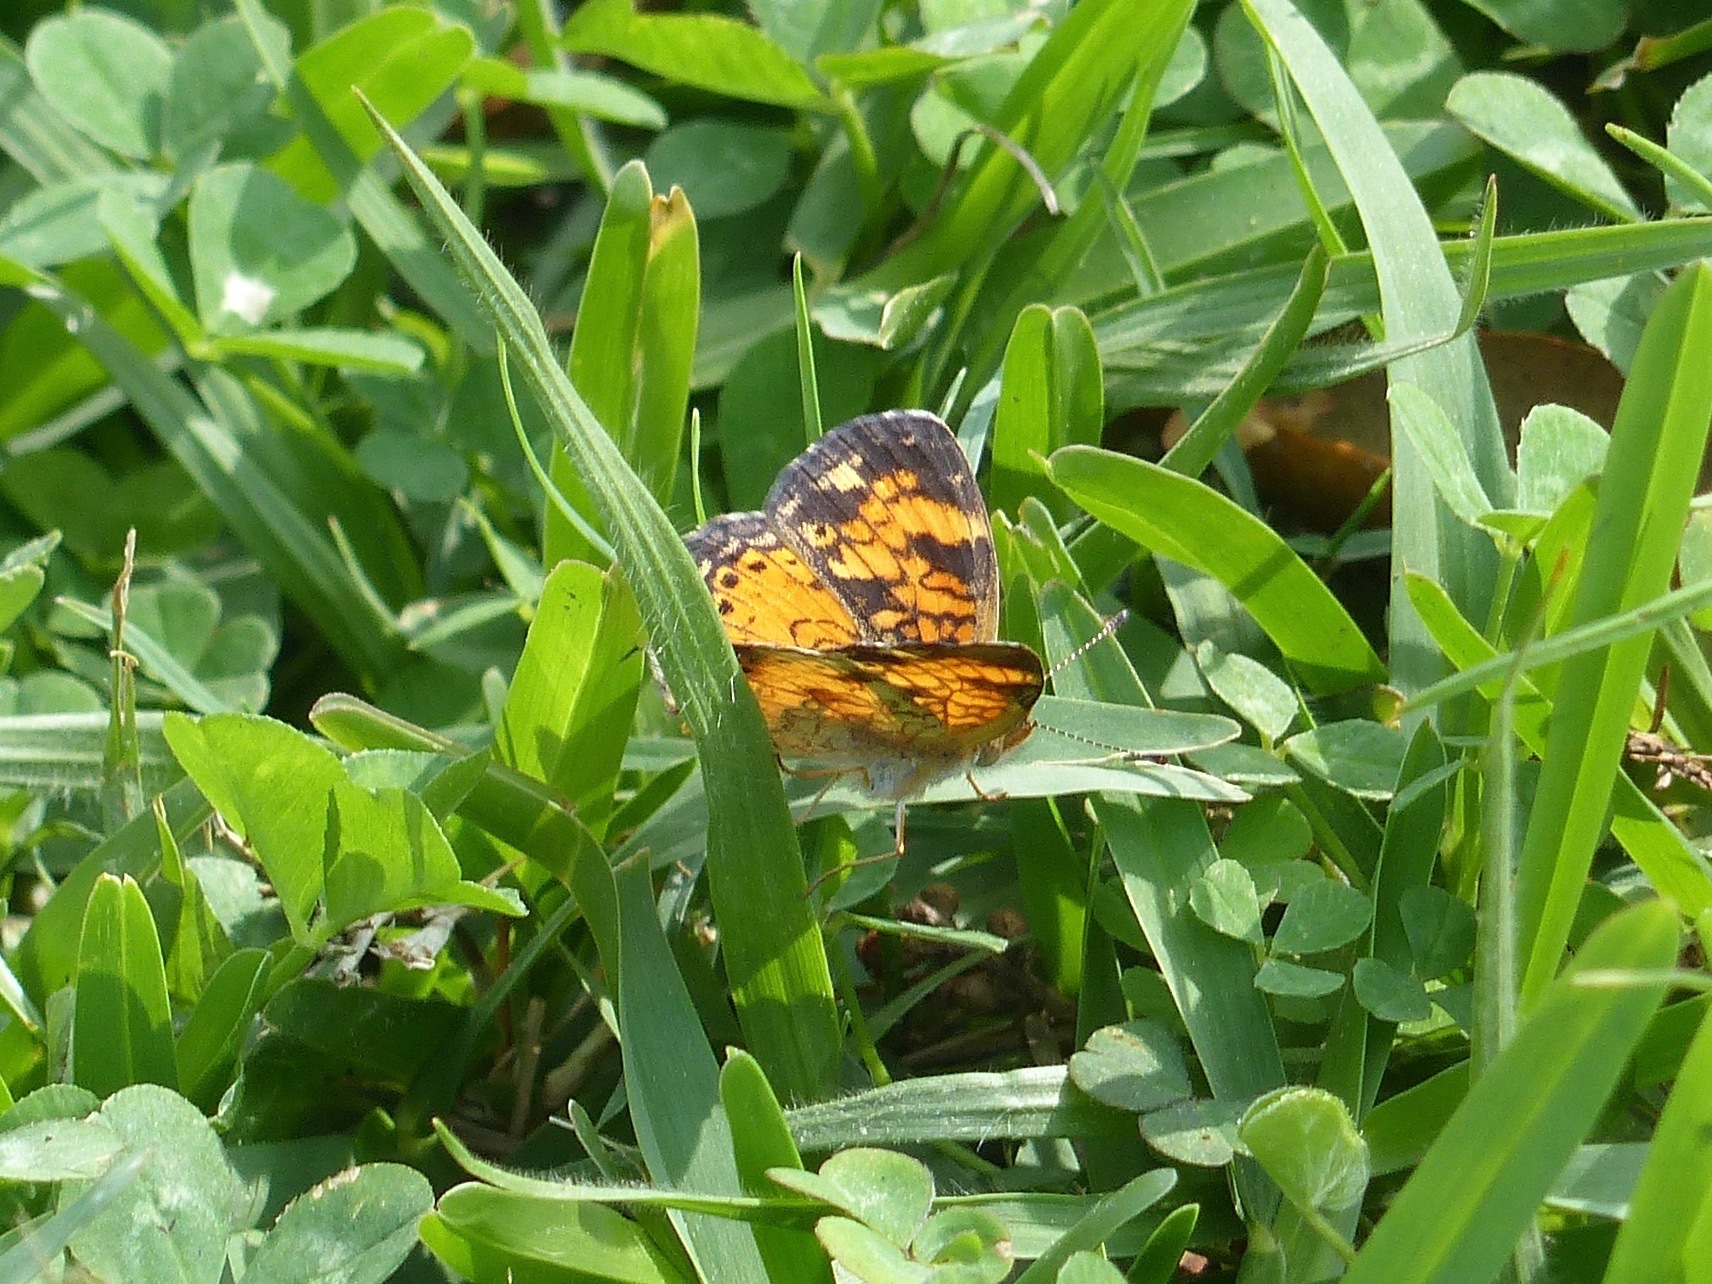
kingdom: Animalia
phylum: Arthropoda
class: Insecta
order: Lepidoptera
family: Nymphalidae
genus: Phyciodes
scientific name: Phyciodes tharos
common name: Pearl crescent
